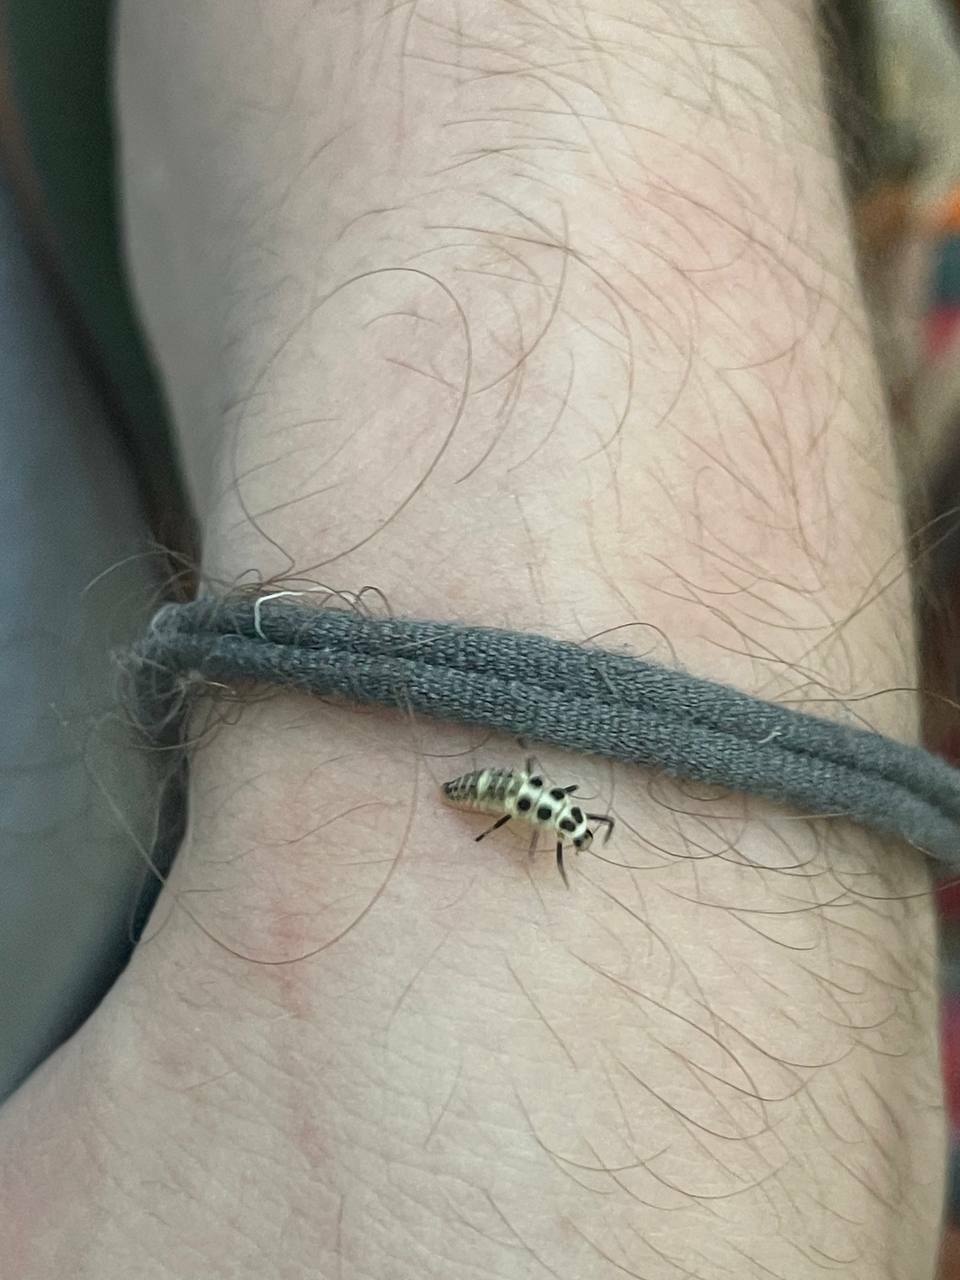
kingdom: Animalia
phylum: Arthropoda
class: Insecta
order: Coleoptera
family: Coccinellidae
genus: Calvia
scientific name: Calvia decemguttata
